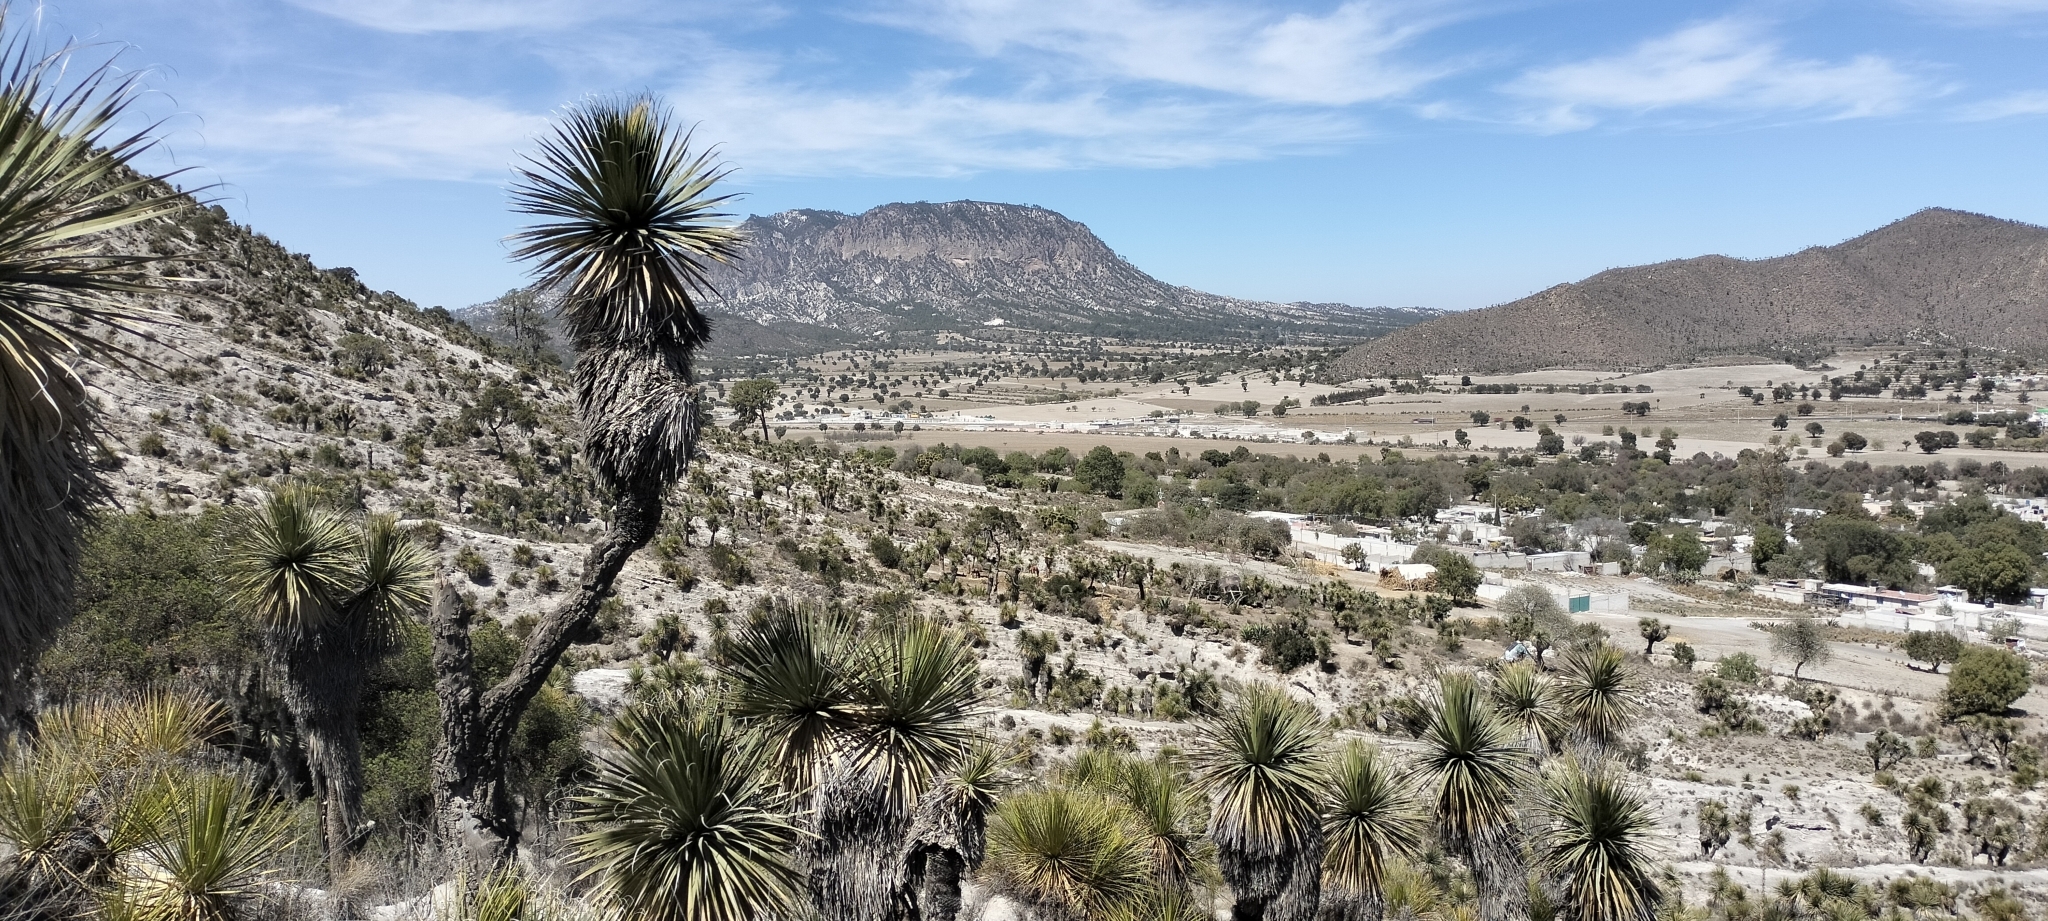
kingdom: Plantae
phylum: Tracheophyta
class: Liliopsida
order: Asparagales
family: Asparagaceae
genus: Nolina
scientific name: Nolina parviflora
